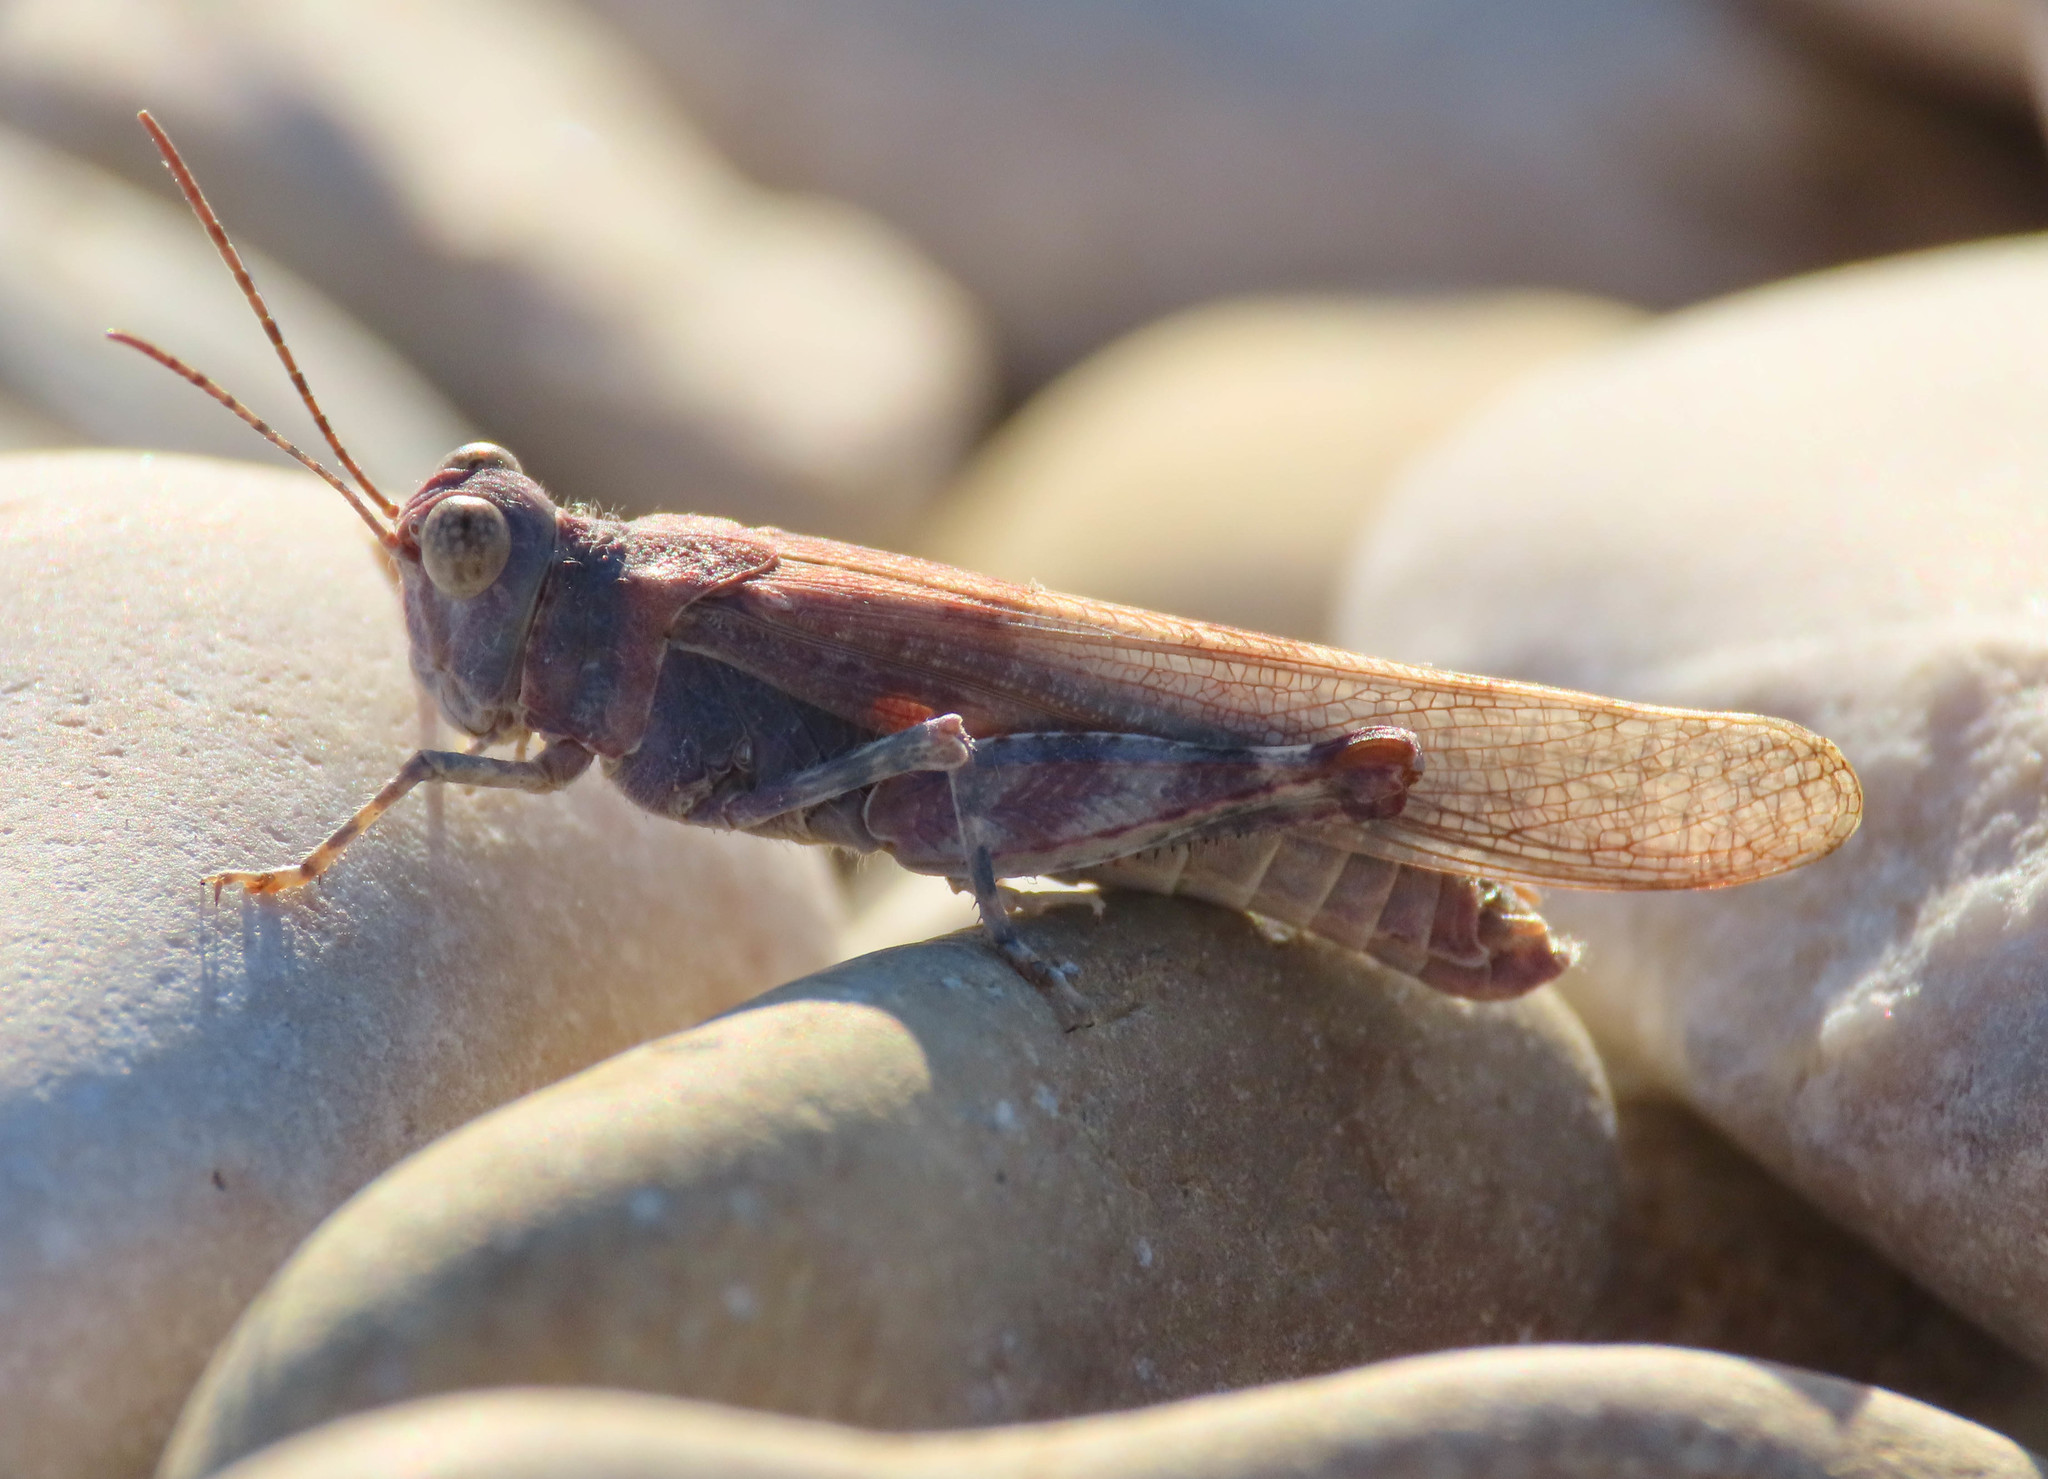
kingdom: Animalia
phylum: Arthropoda
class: Insecta
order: Orthoptera
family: Acrididae
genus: Sphingonotus
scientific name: Sphingonotus caerulans
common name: Blue-winged locust
